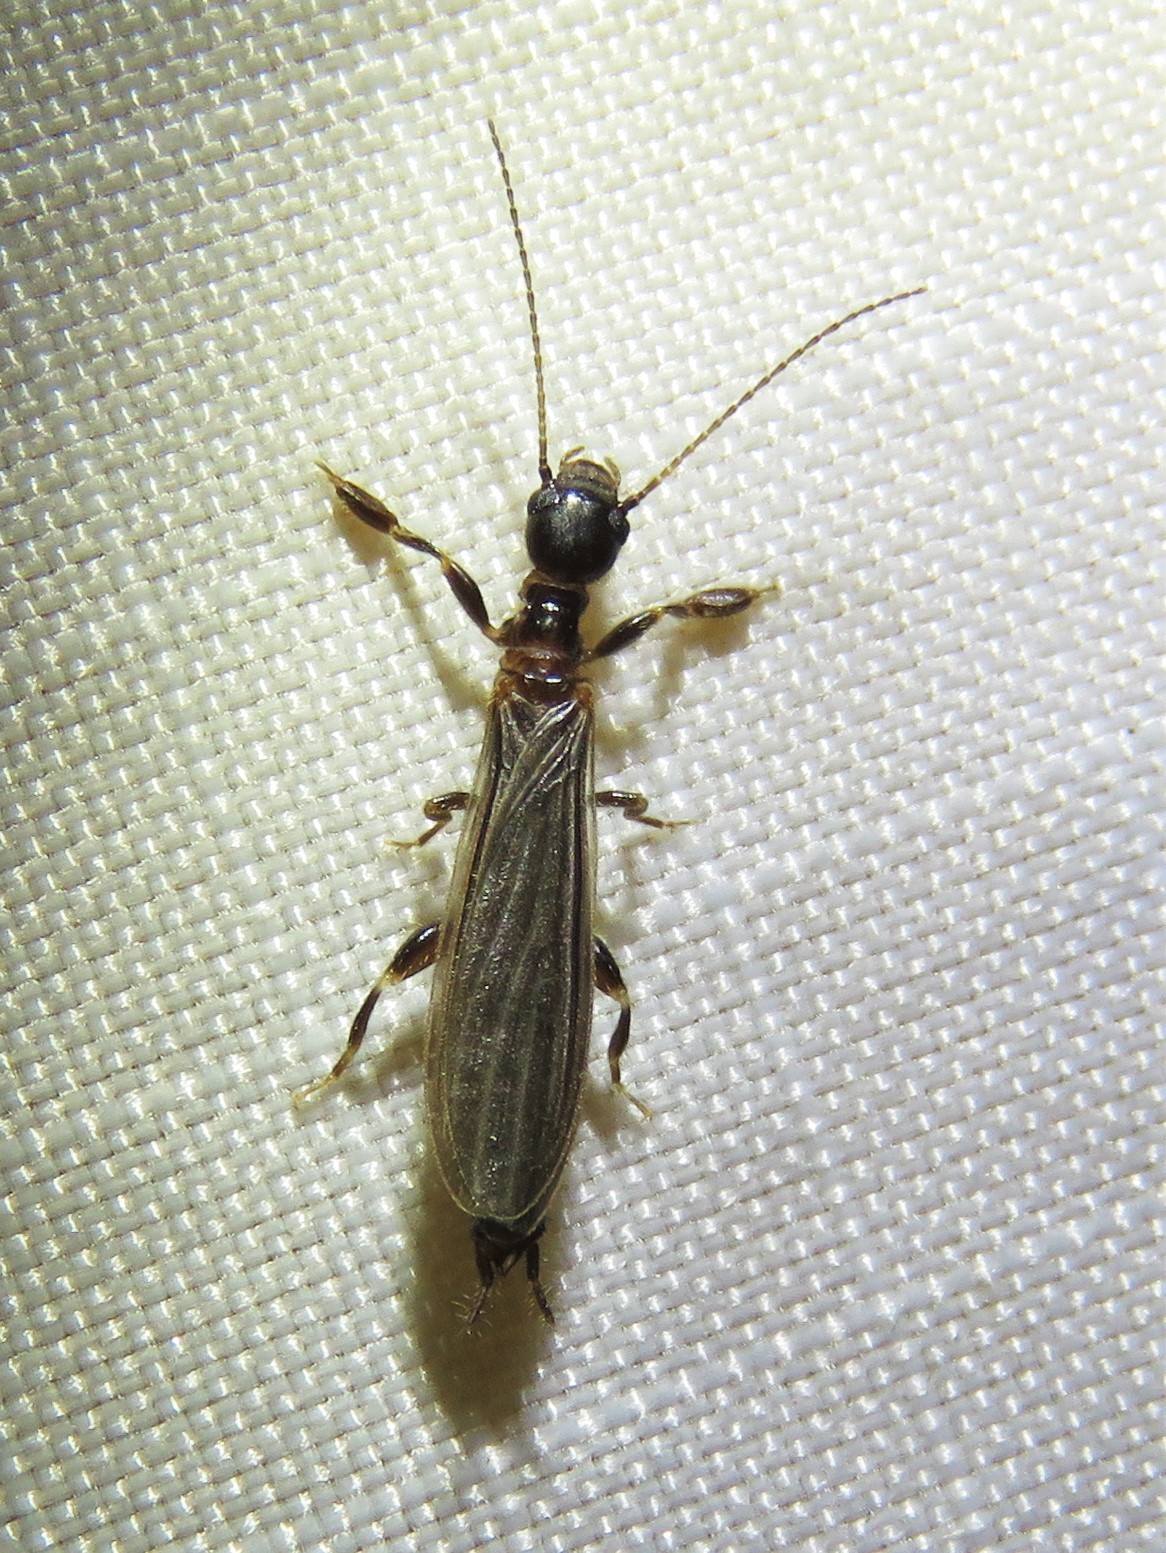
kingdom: Animalia
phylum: Arthropoda
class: Insecta
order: Embioptera
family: Oligotomidae
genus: Oligotoma
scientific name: Oligotoma nigra
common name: Black webspinner
